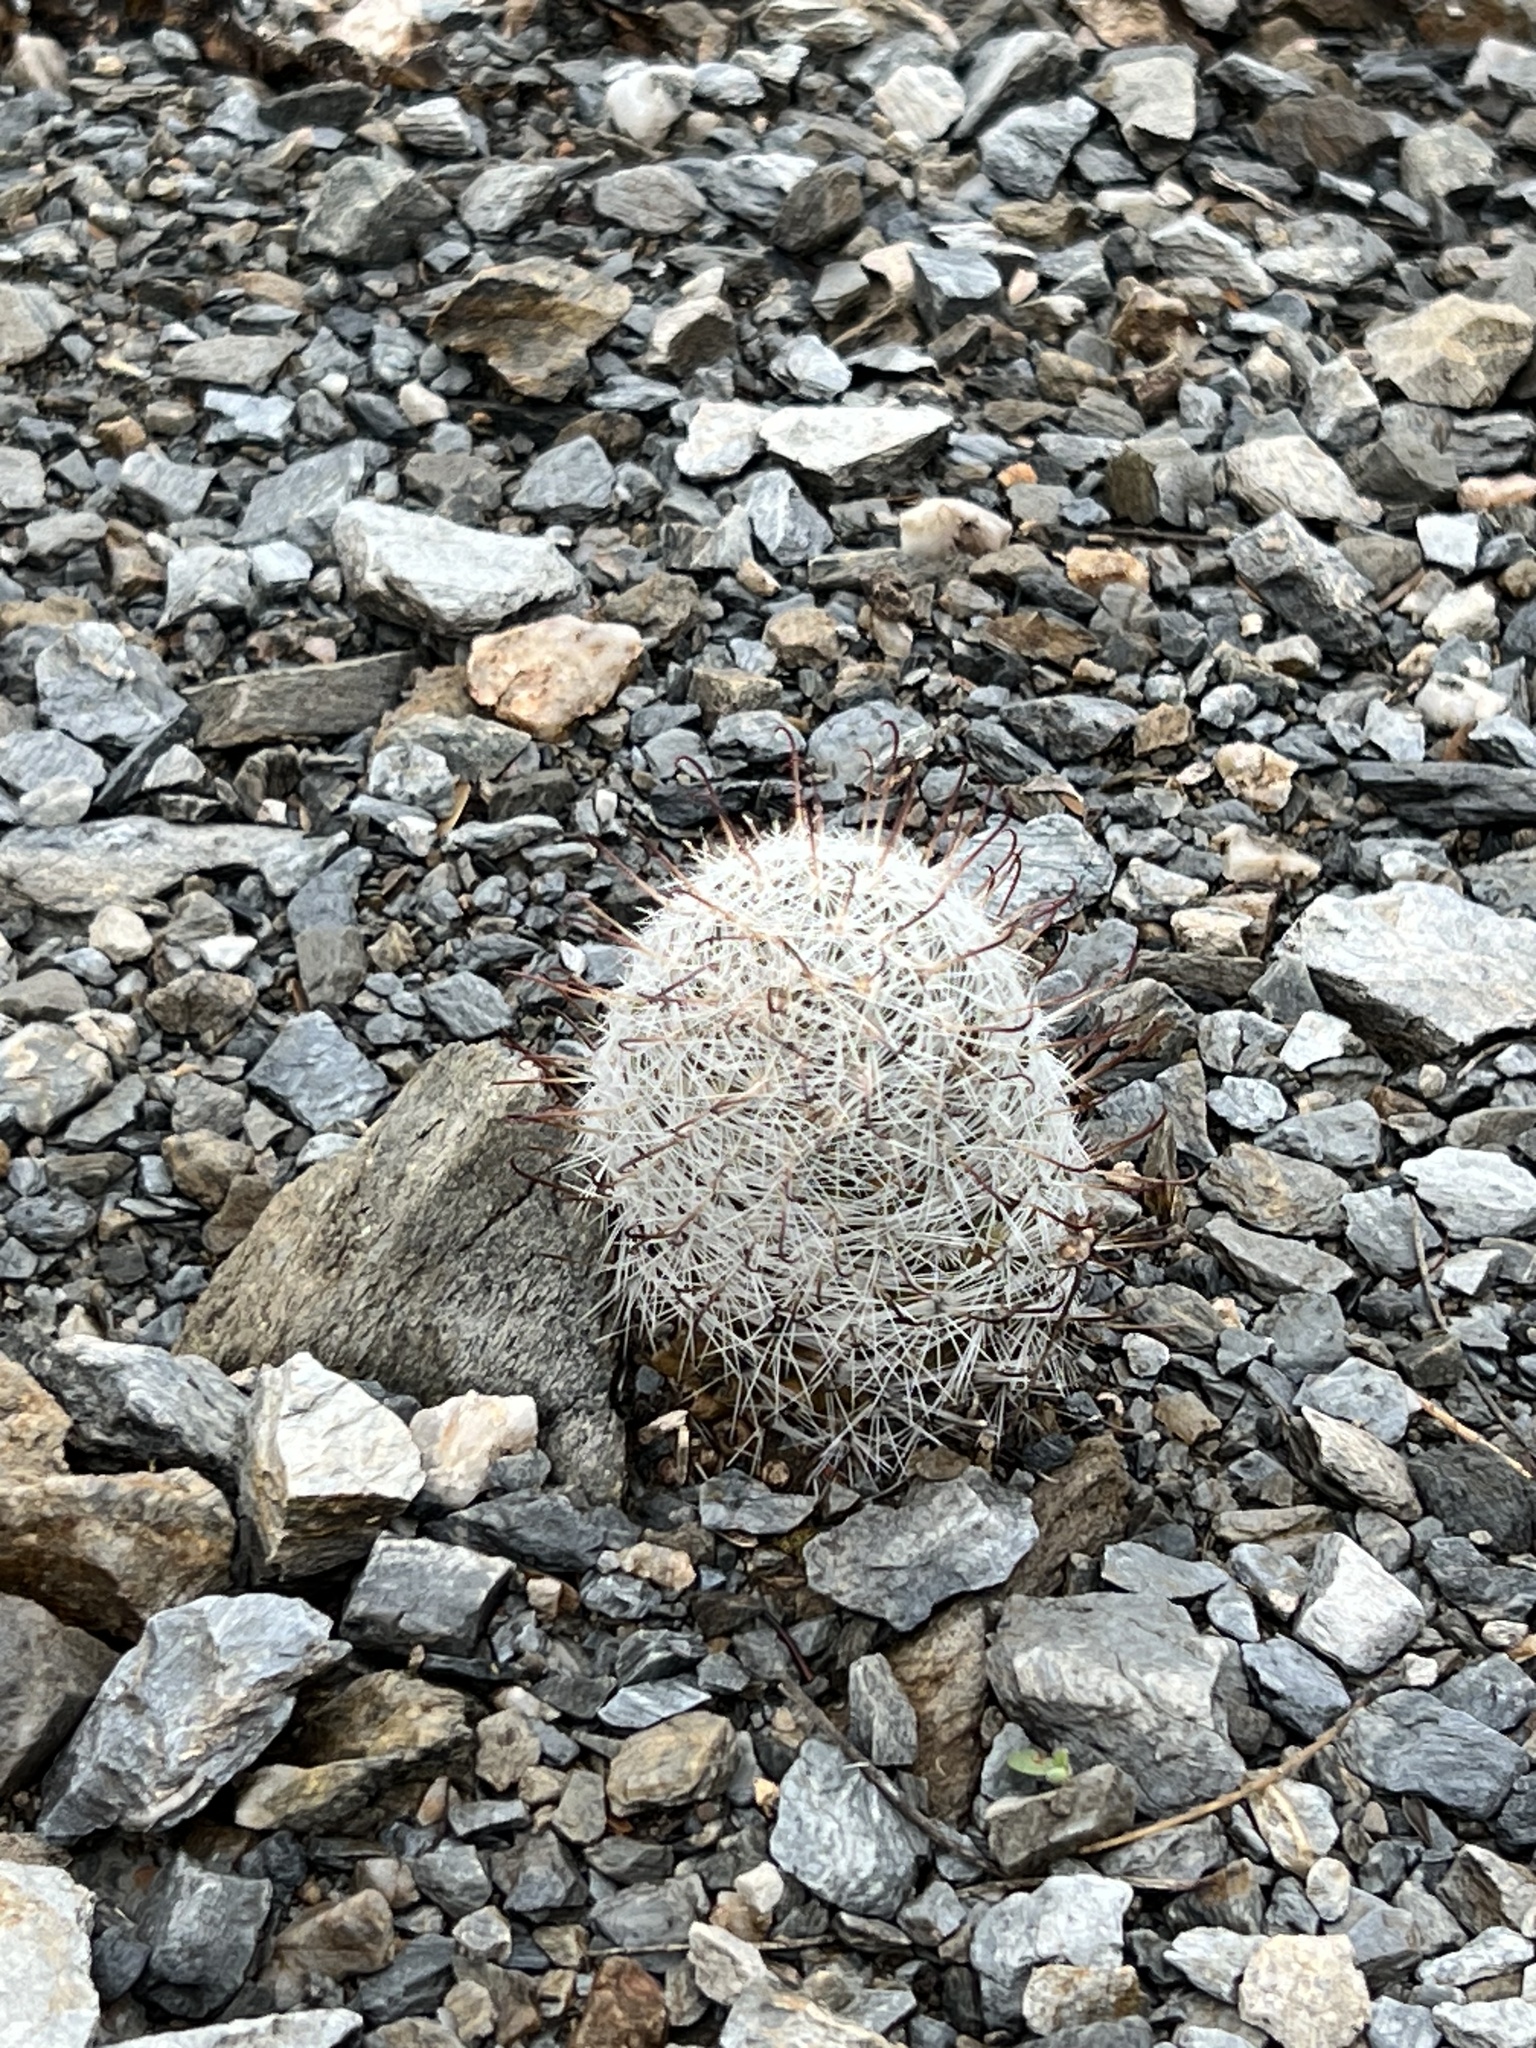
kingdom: Plantae
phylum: Tracheophyta
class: Magnoliopsida
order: Caryophyllales
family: Cactaceae
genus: Cochemiea
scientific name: Cochemiea grahamii
